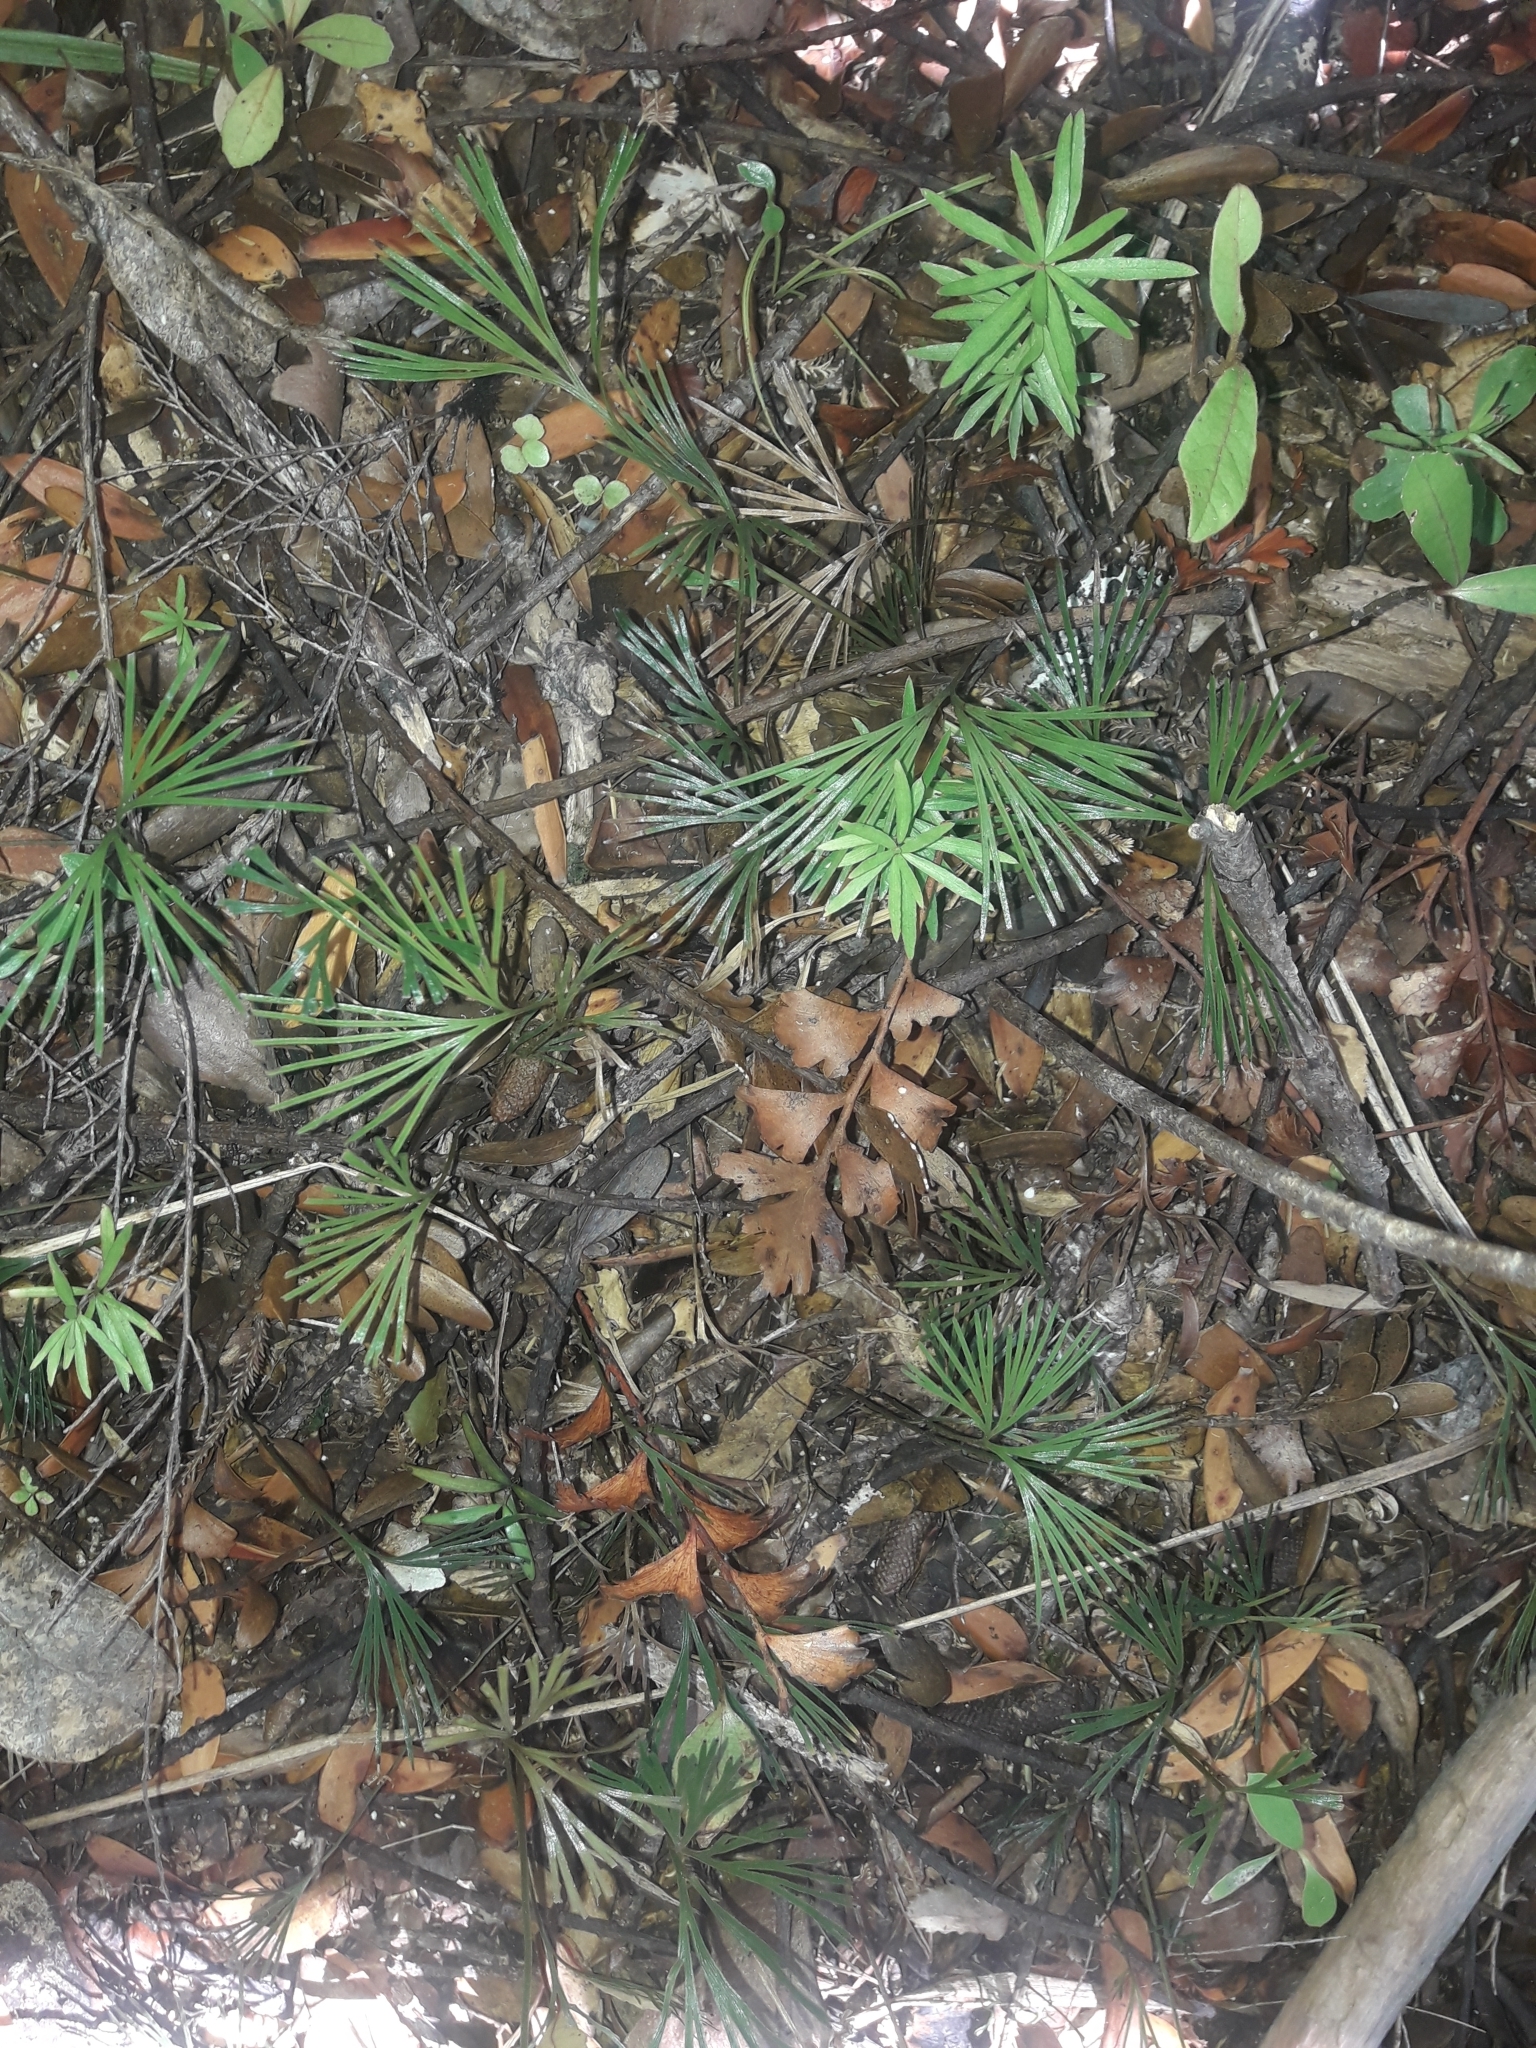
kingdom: Plantae
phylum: Tracheophyta
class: Polypodiopsida
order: Schizaeales
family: Schizaeaceae
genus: Schizaea
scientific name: Schizaea dichotoma
